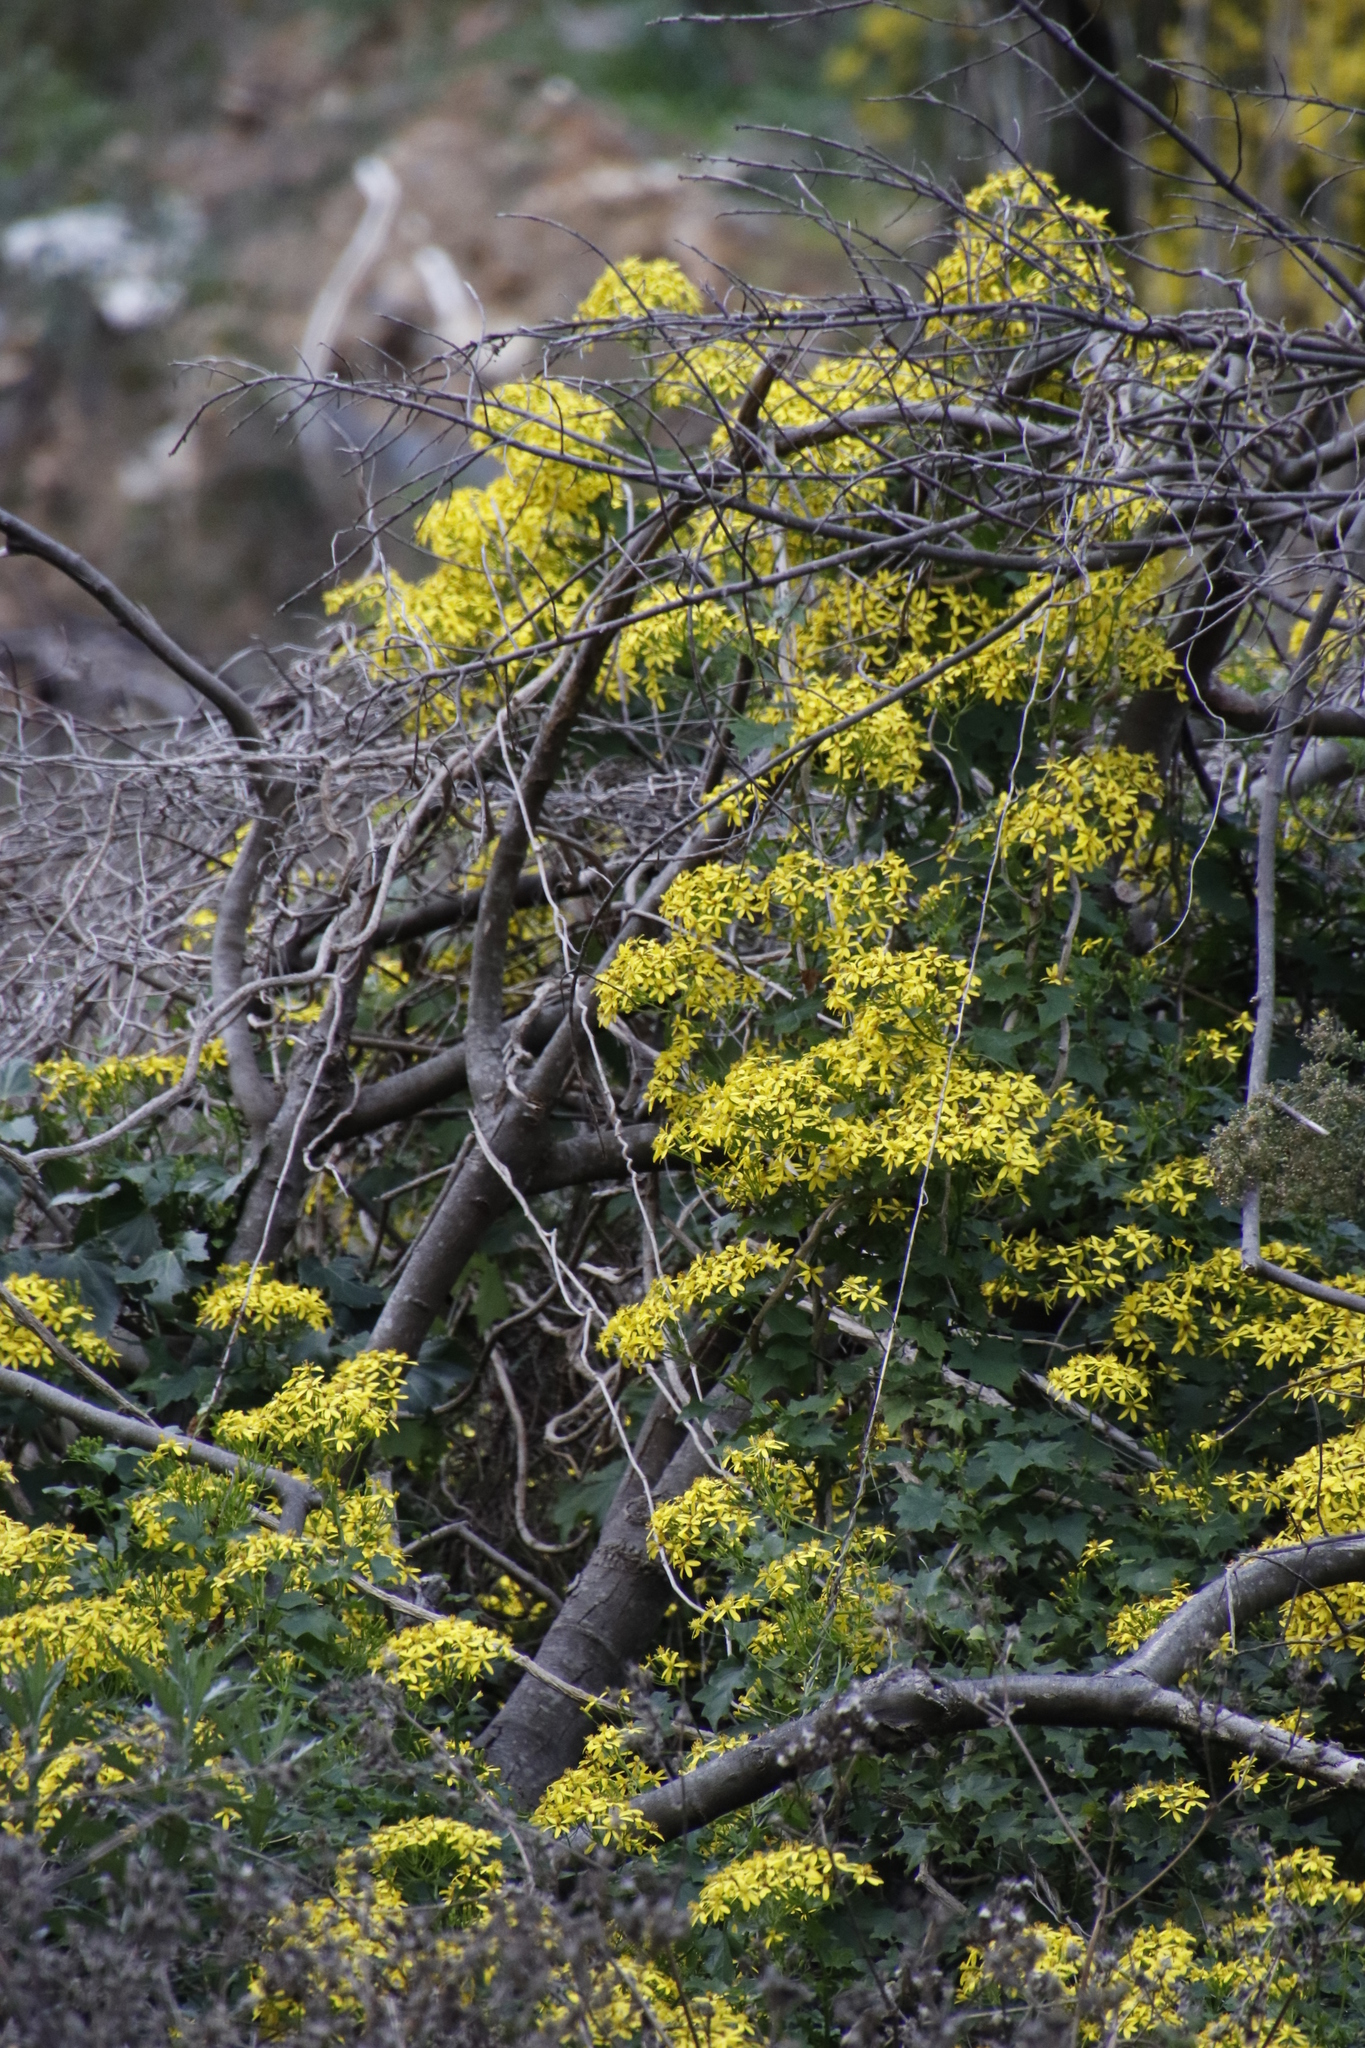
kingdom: Plantae
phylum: Tracheophyta
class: Magnoliopsida
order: Asterales
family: Asteraceae
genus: Senecio
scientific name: Senecio tamoides
